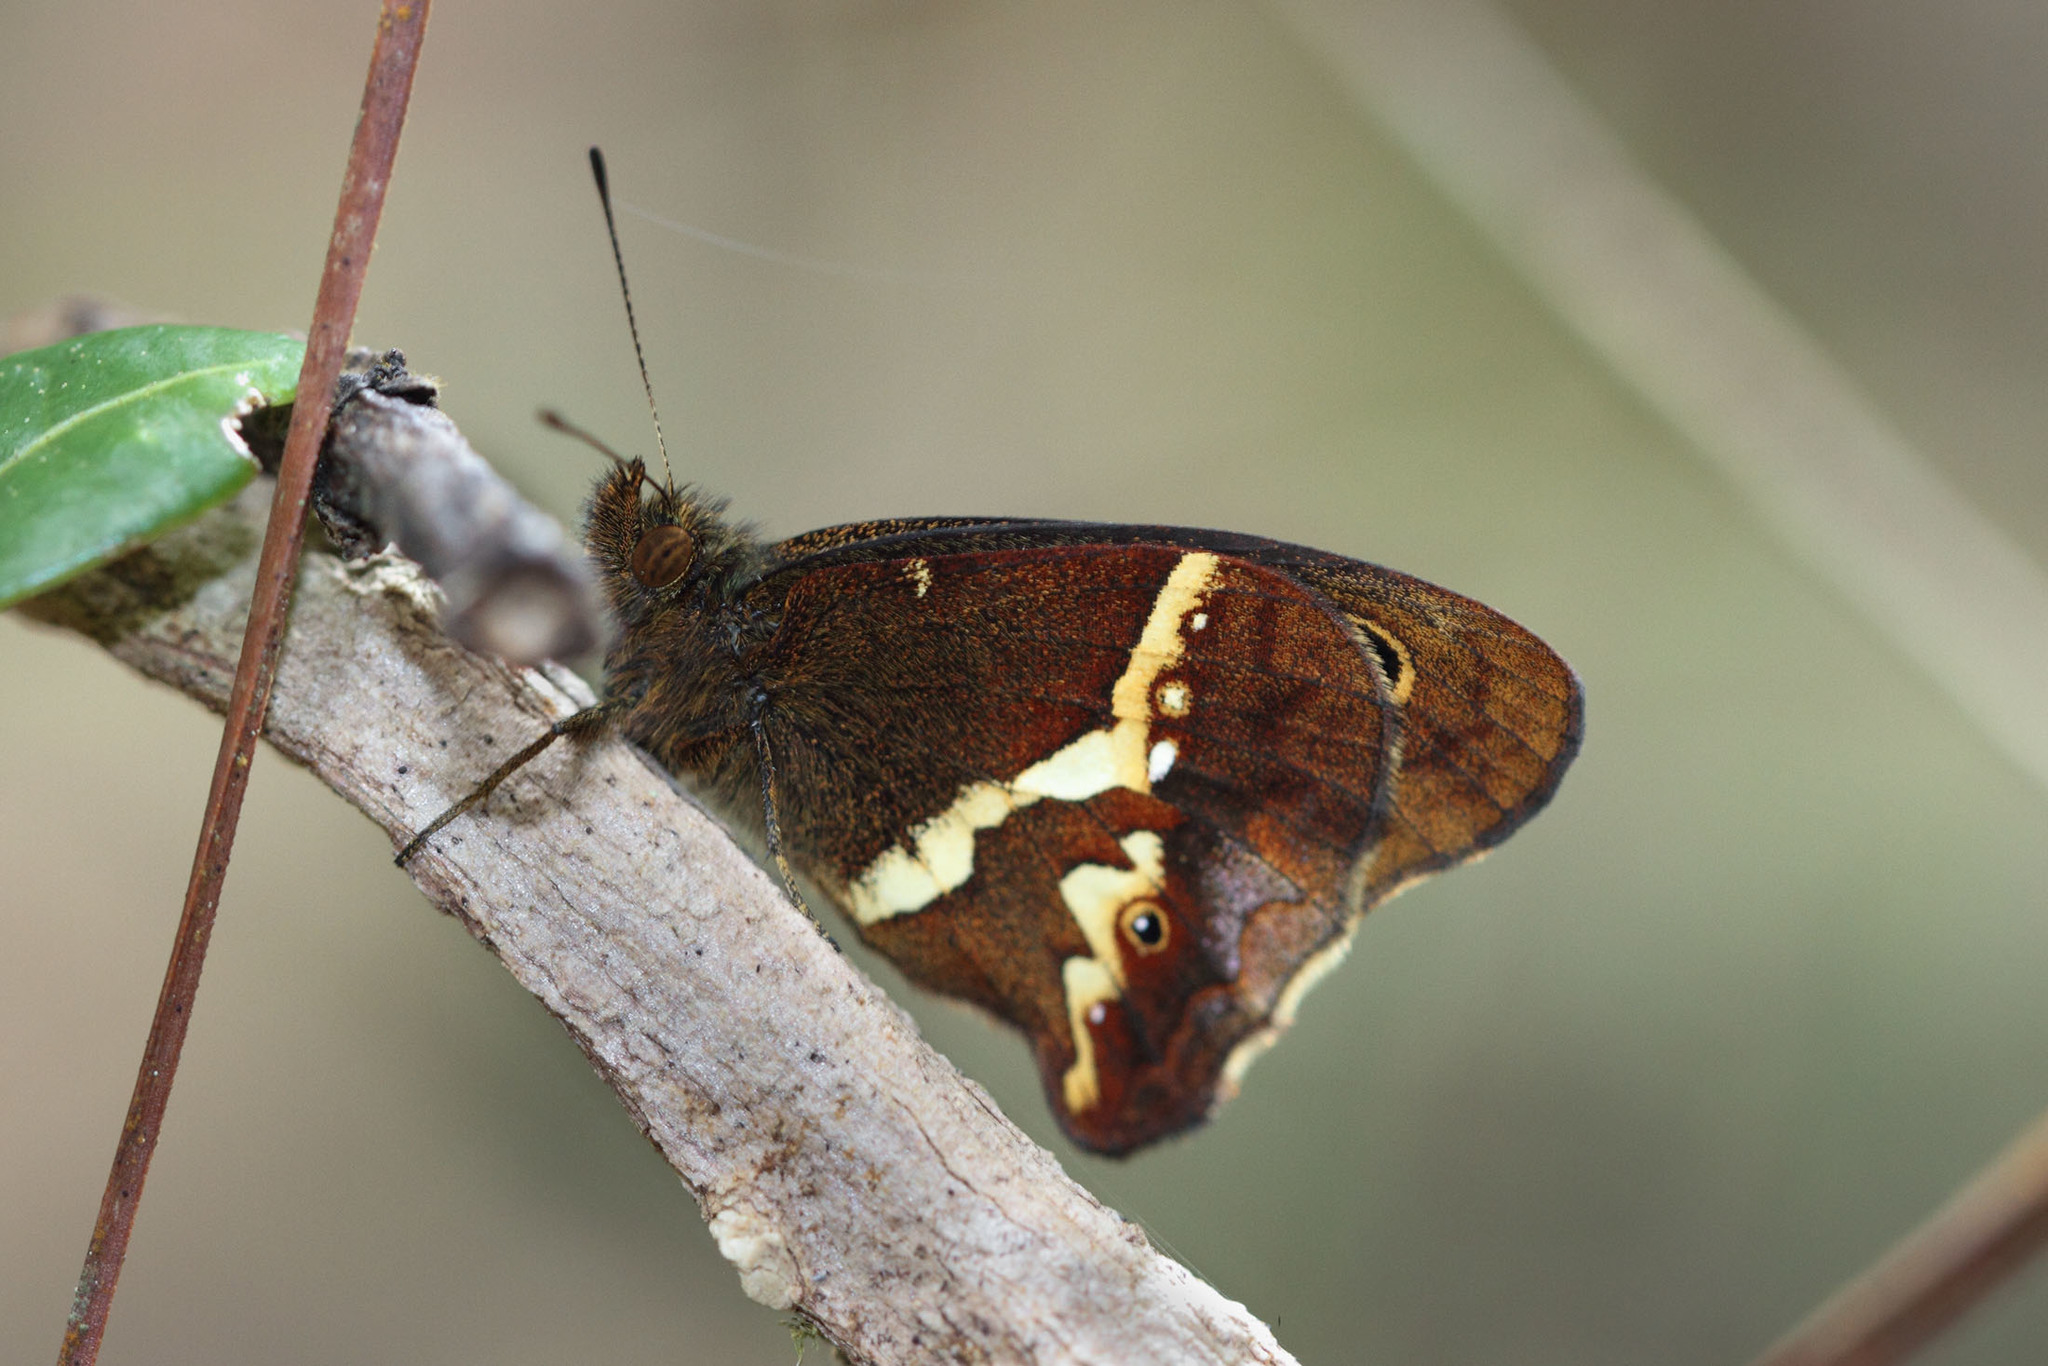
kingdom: Animalia
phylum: Arthropoda
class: Insecta
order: Lepidoptera
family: Nymphalidae
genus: Calisto
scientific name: Calisto chrysaoros
